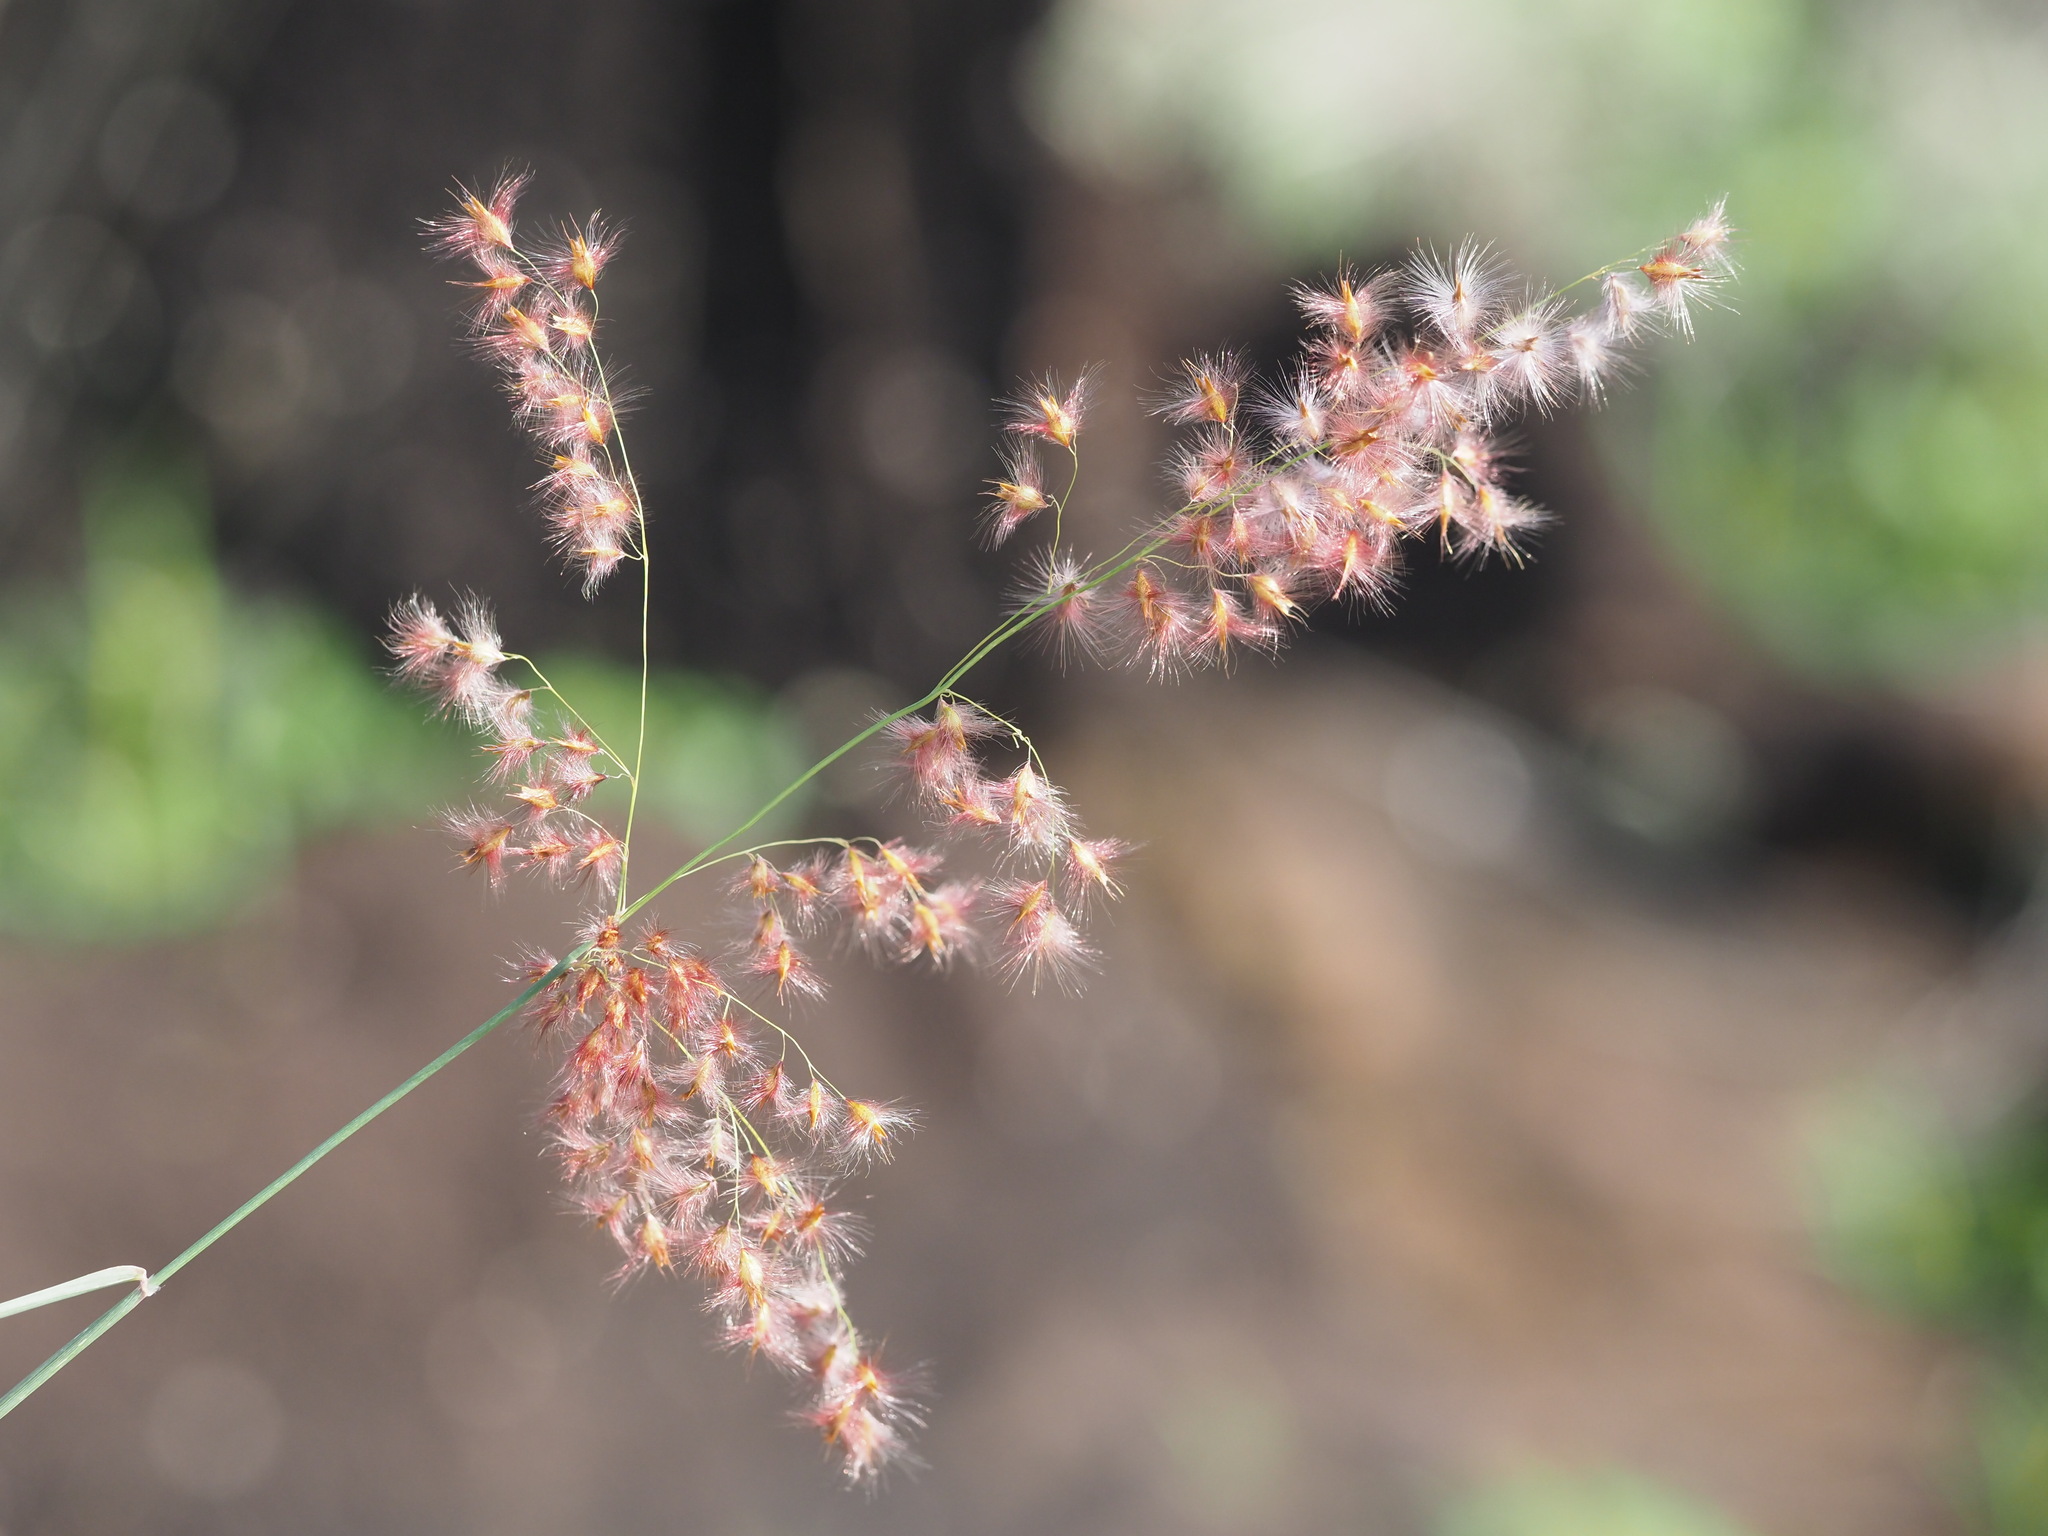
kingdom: Plantae
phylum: Tracheophyta
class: Liliopsida
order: Poales
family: Poaceae
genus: Melinis
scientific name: Melinis repens
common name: Rose natal grass
